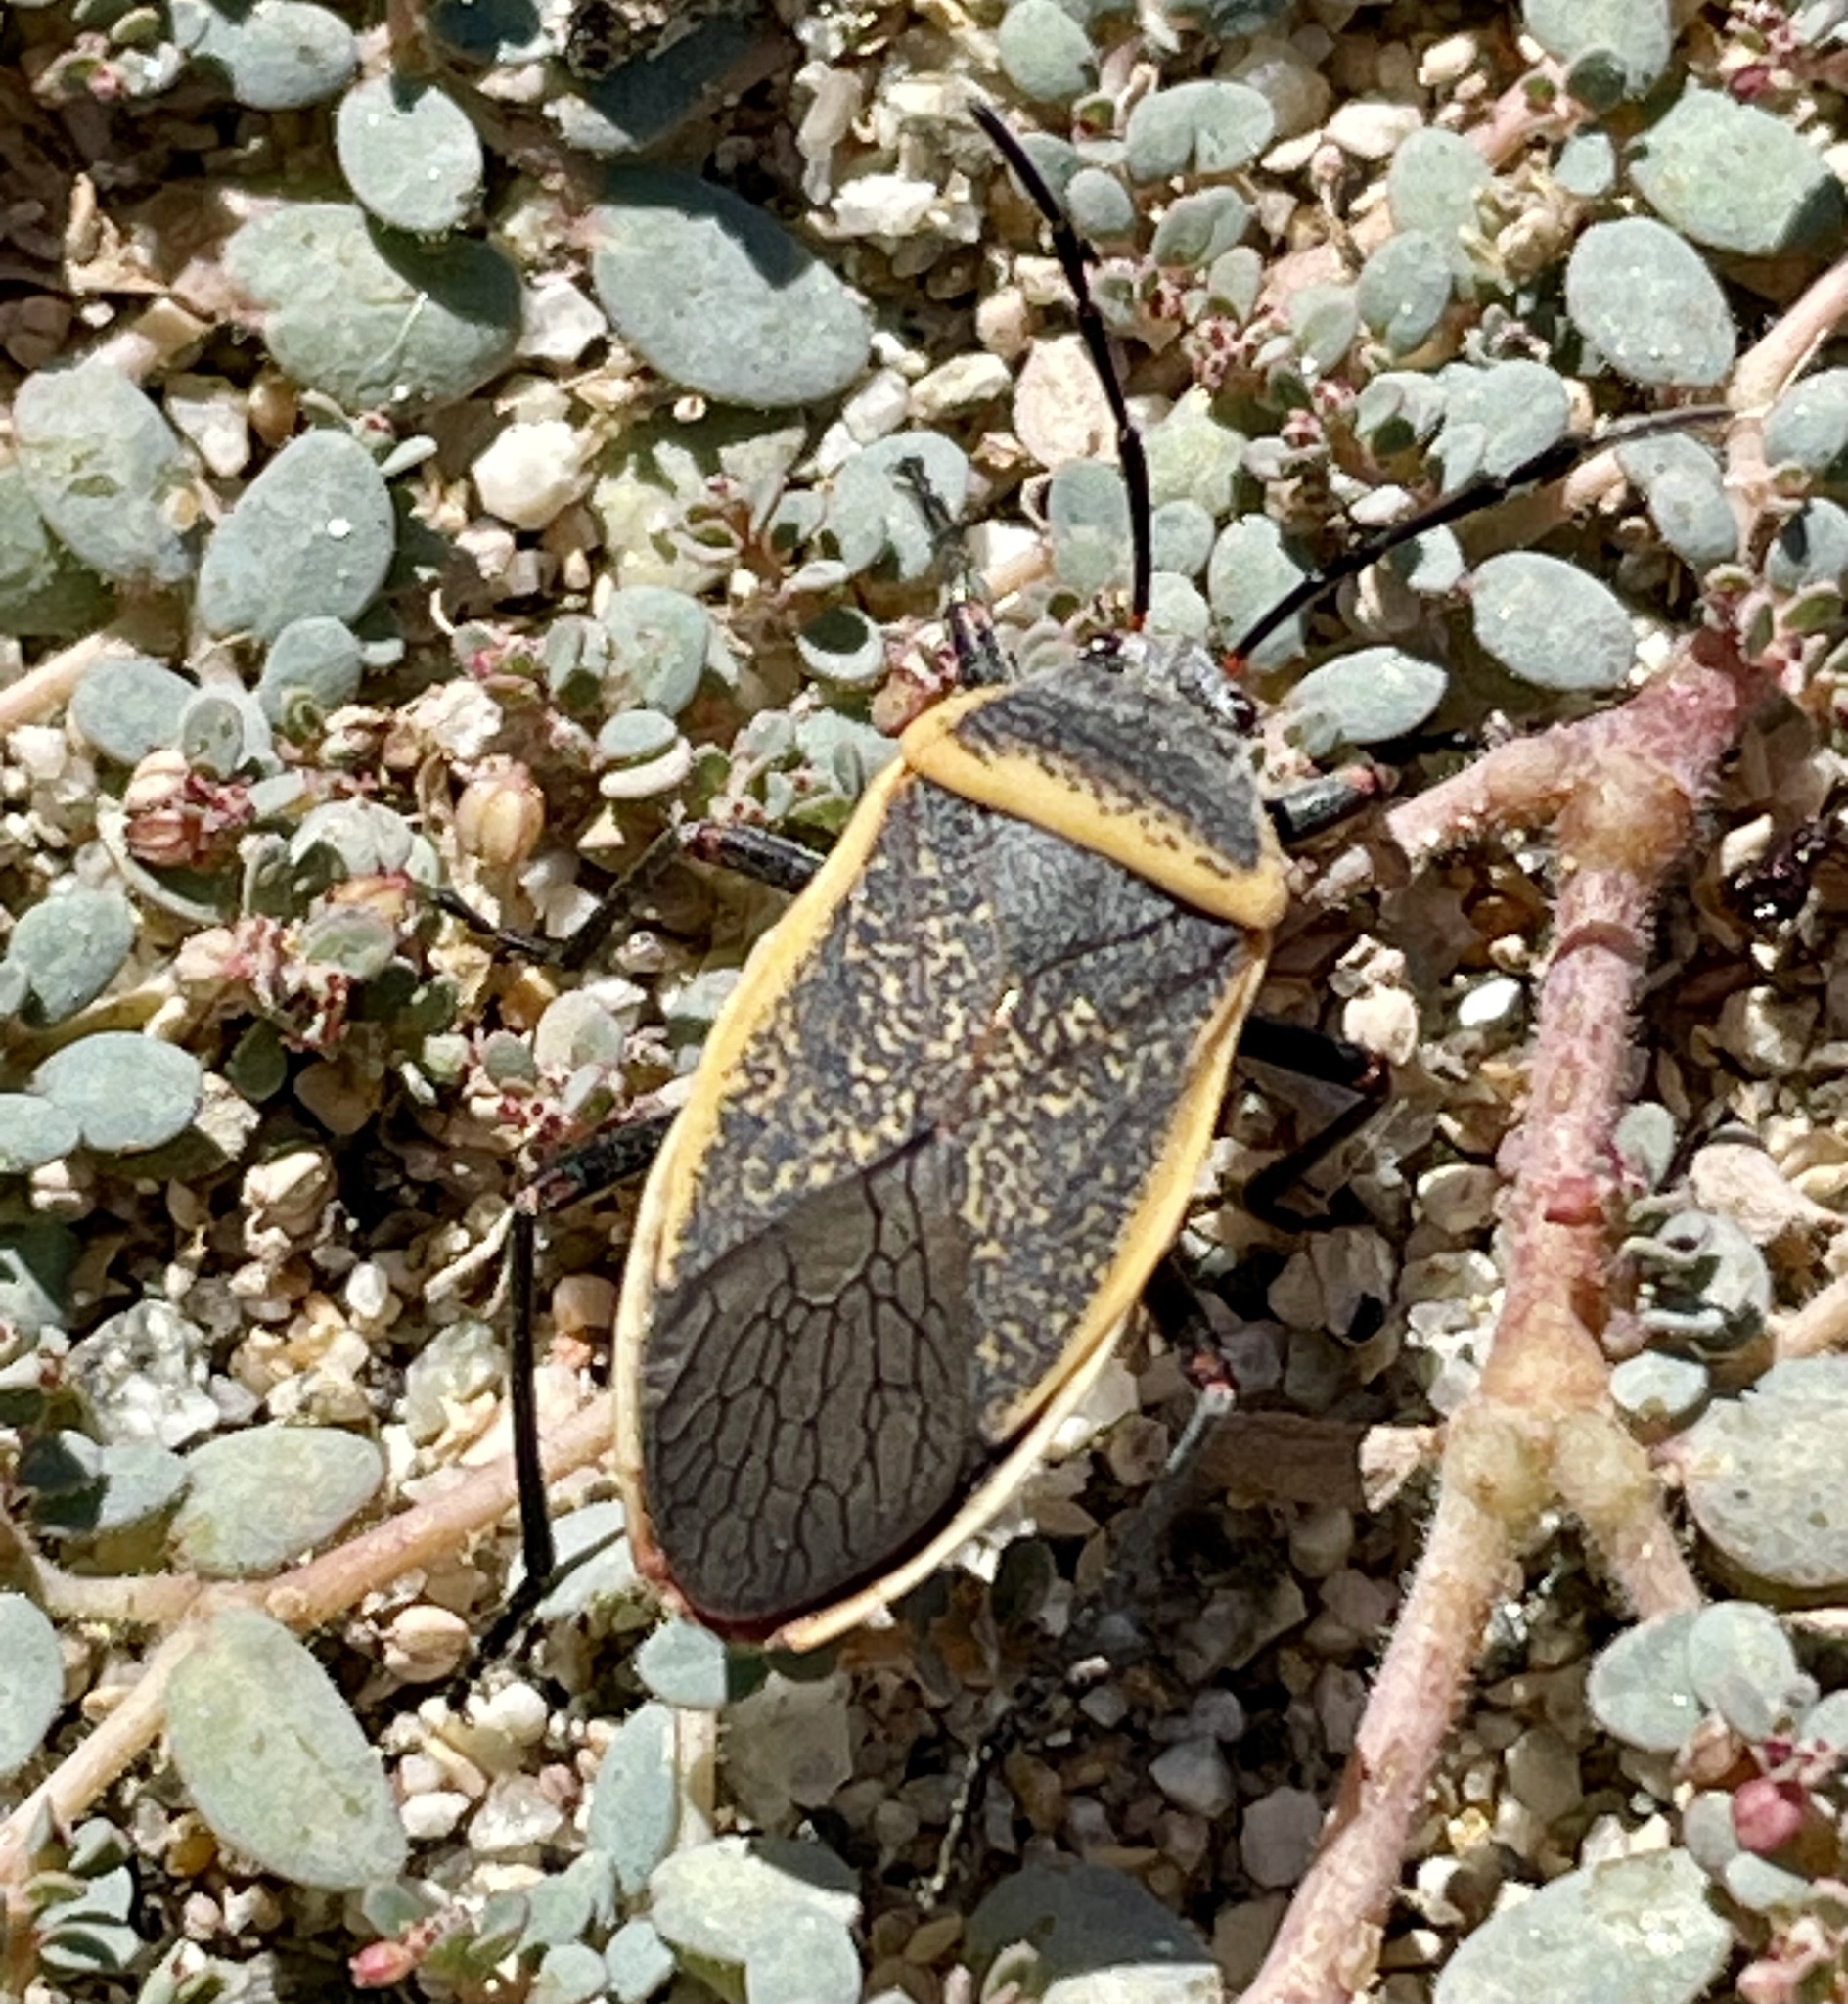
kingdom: Animalia
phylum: Arthropoda
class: Insecta
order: Hemiptera
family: Largidae
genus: Largus
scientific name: Largus californicus
